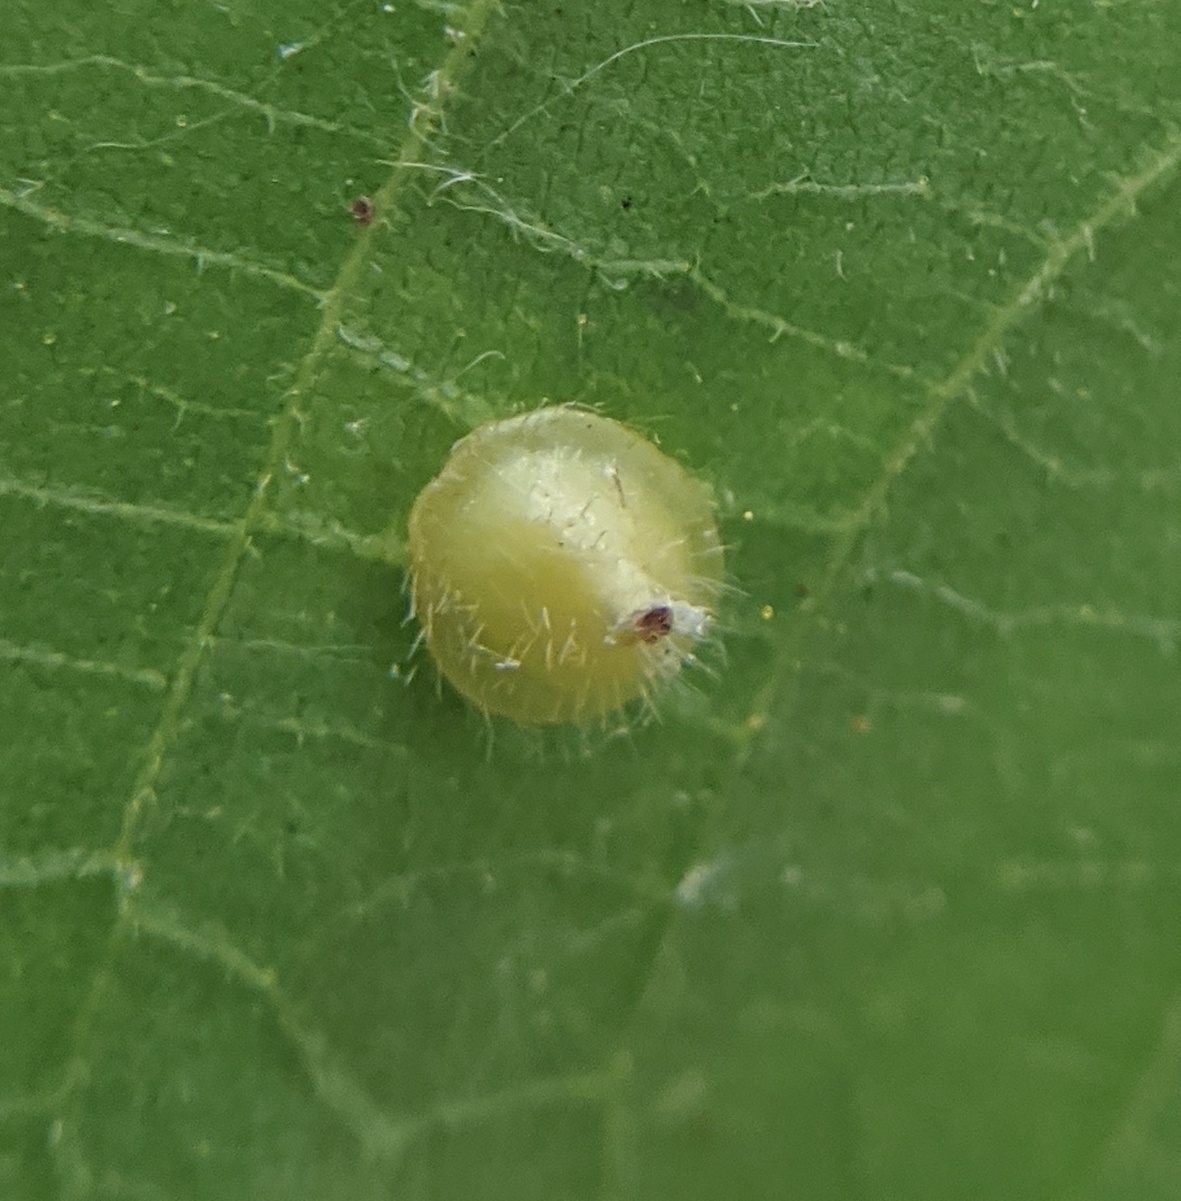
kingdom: Animalia
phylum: Arthropoda
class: Insecta
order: Diptera
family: Cecidomyiidae
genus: Caryomyia
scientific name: Caryomyia marginata
